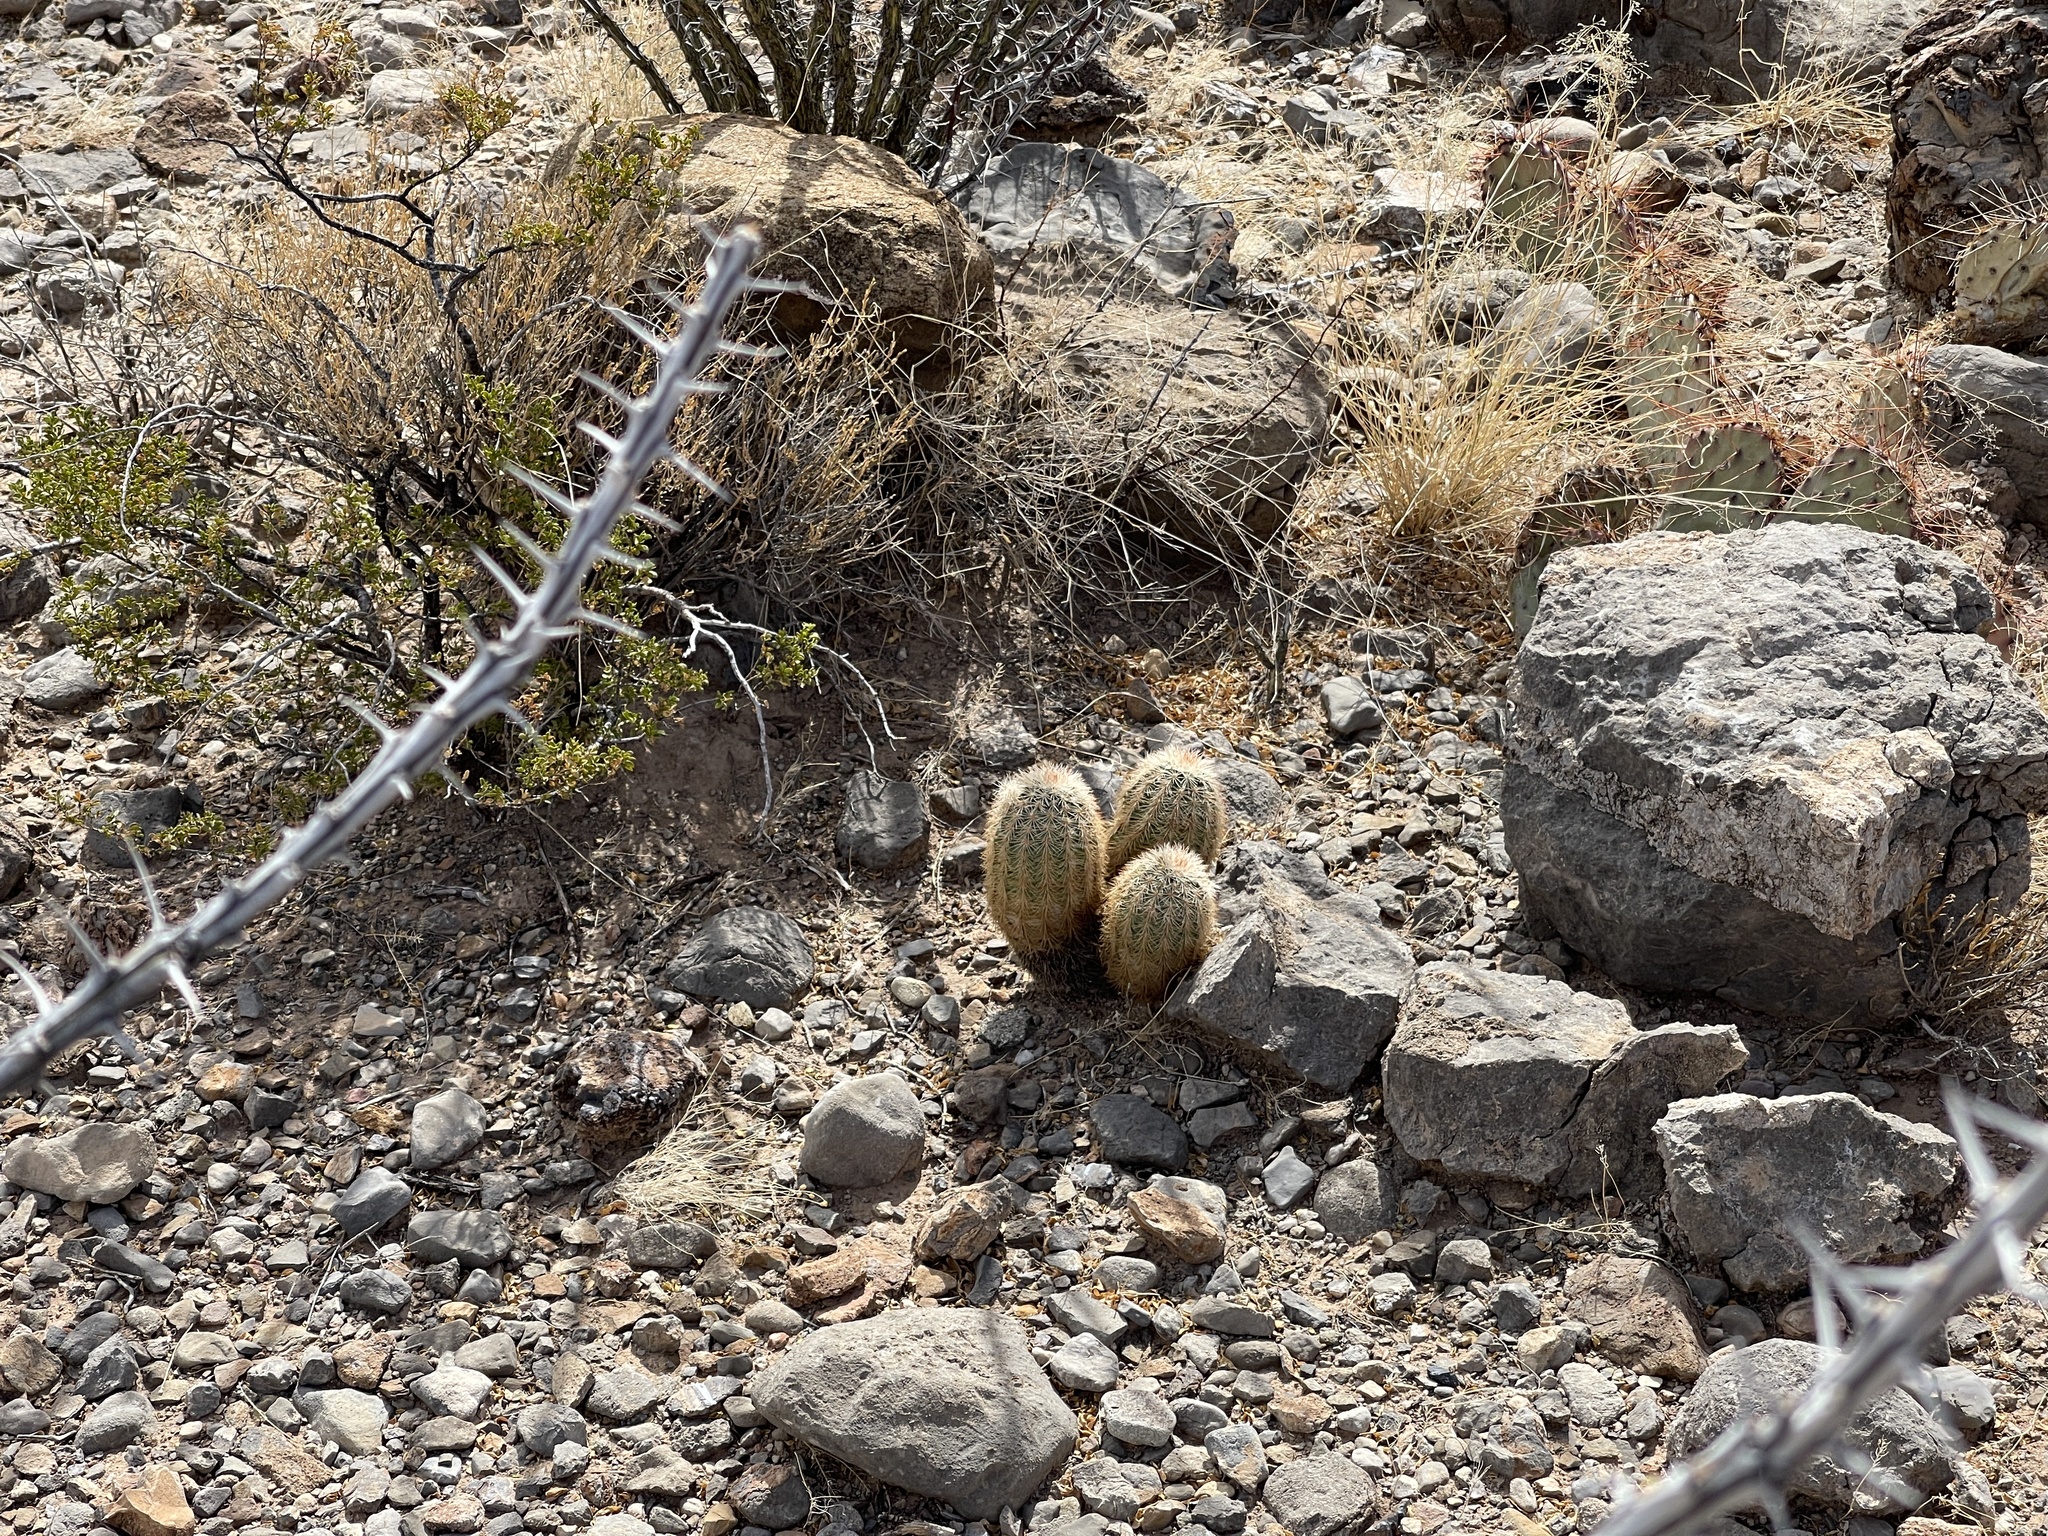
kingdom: Plantae
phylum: Tracheophyta
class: Magnoliopsida
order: Caryophyllales
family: Cactaceae
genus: Echinocereus
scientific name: Echinocereus dasyacanthus
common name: Spiny hedgehog cactus
